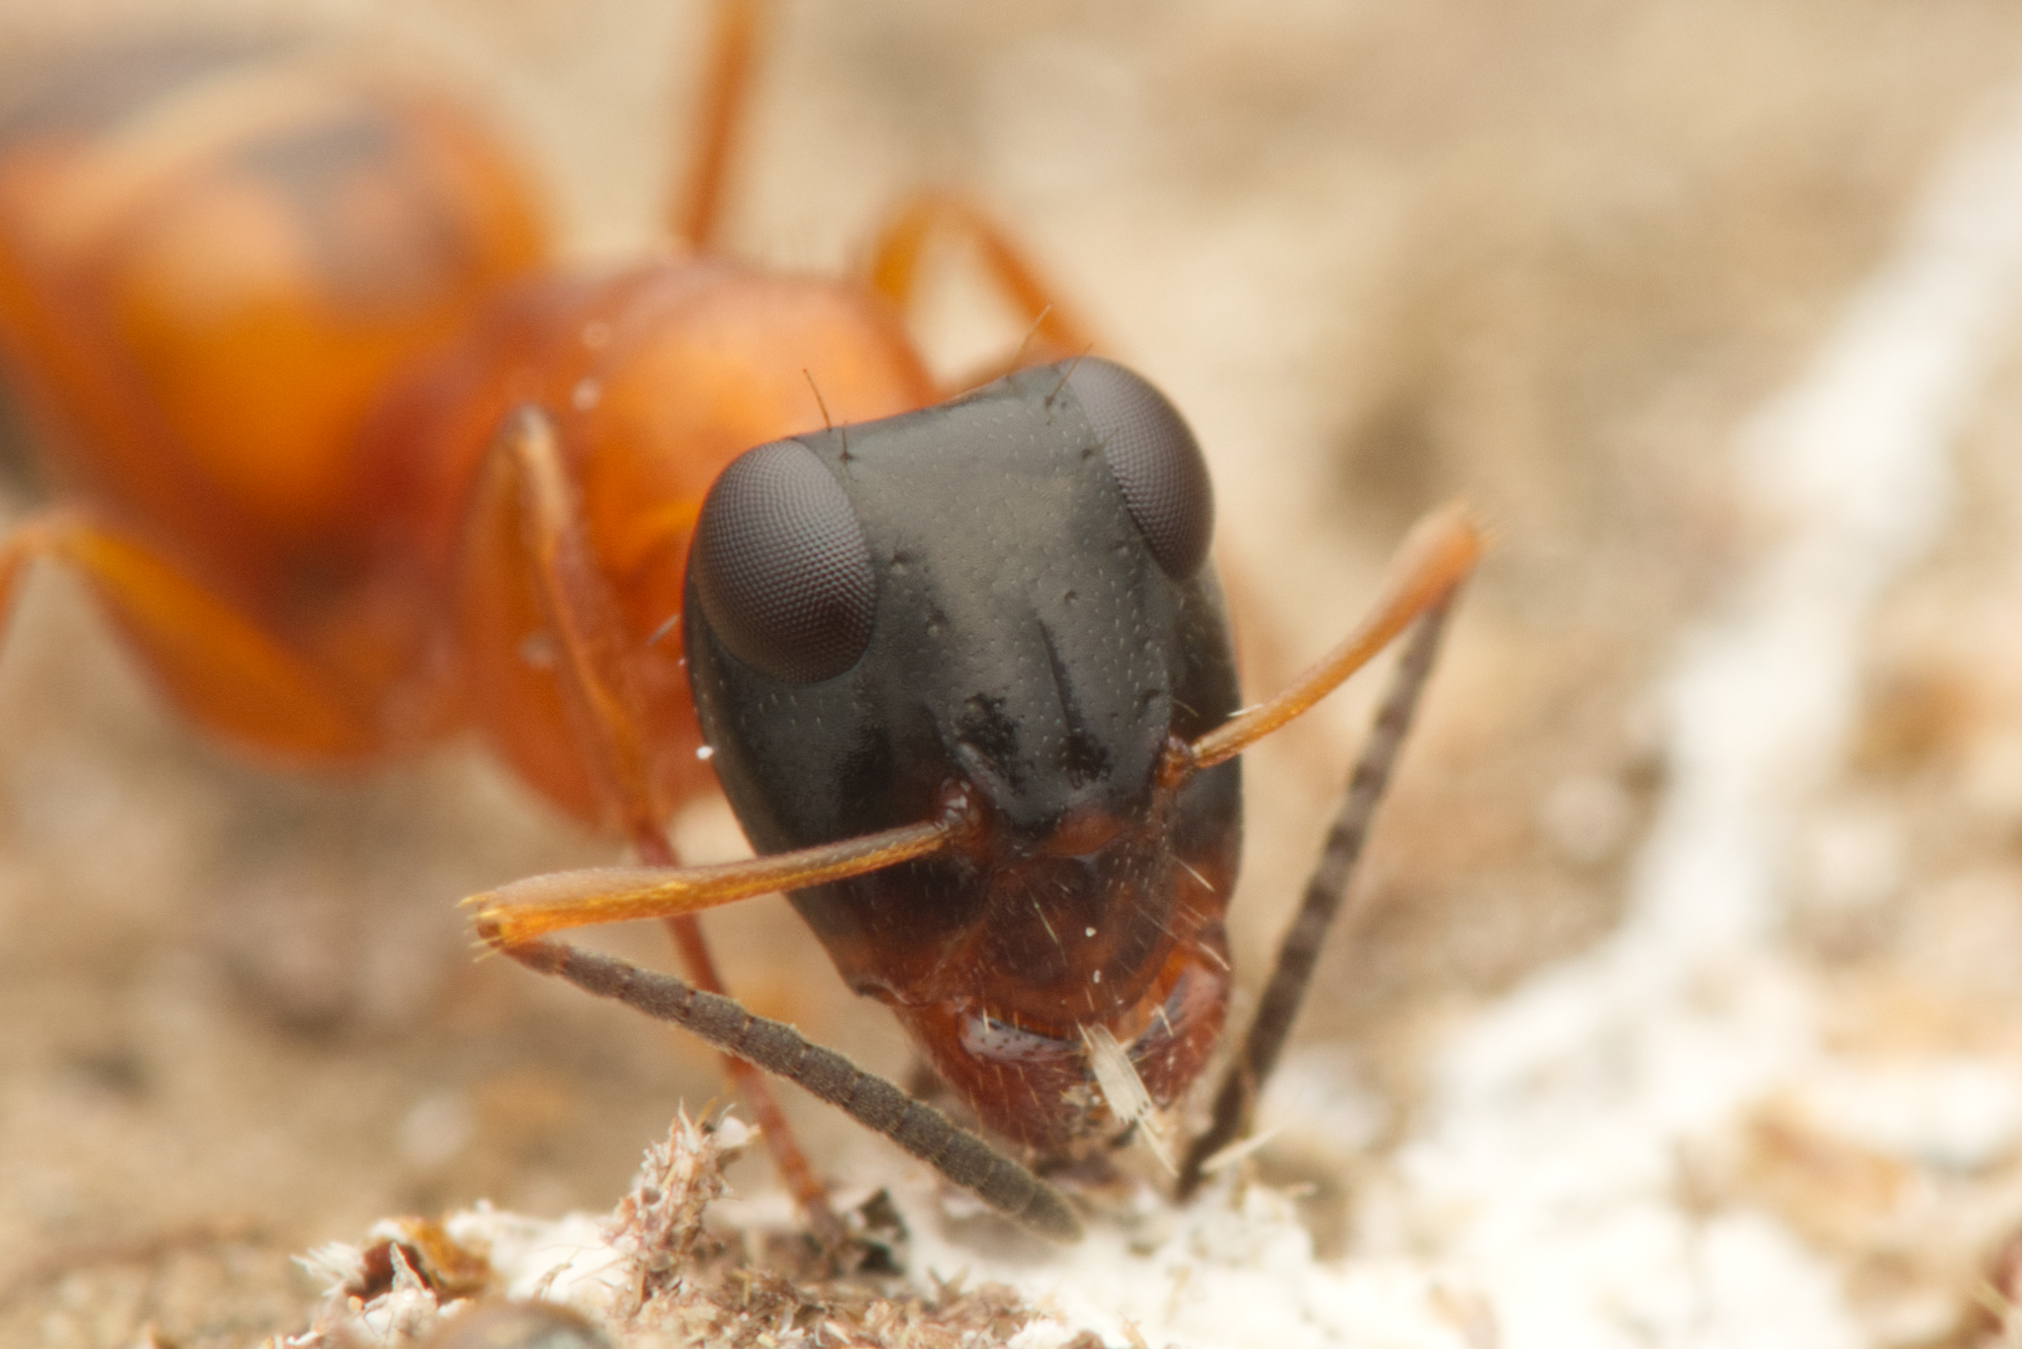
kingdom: Animalia
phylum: Arthropoda
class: Insecta
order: Hymenoptera
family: Formicidae
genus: Opisthopsis
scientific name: Opisthopsis rufithorax
